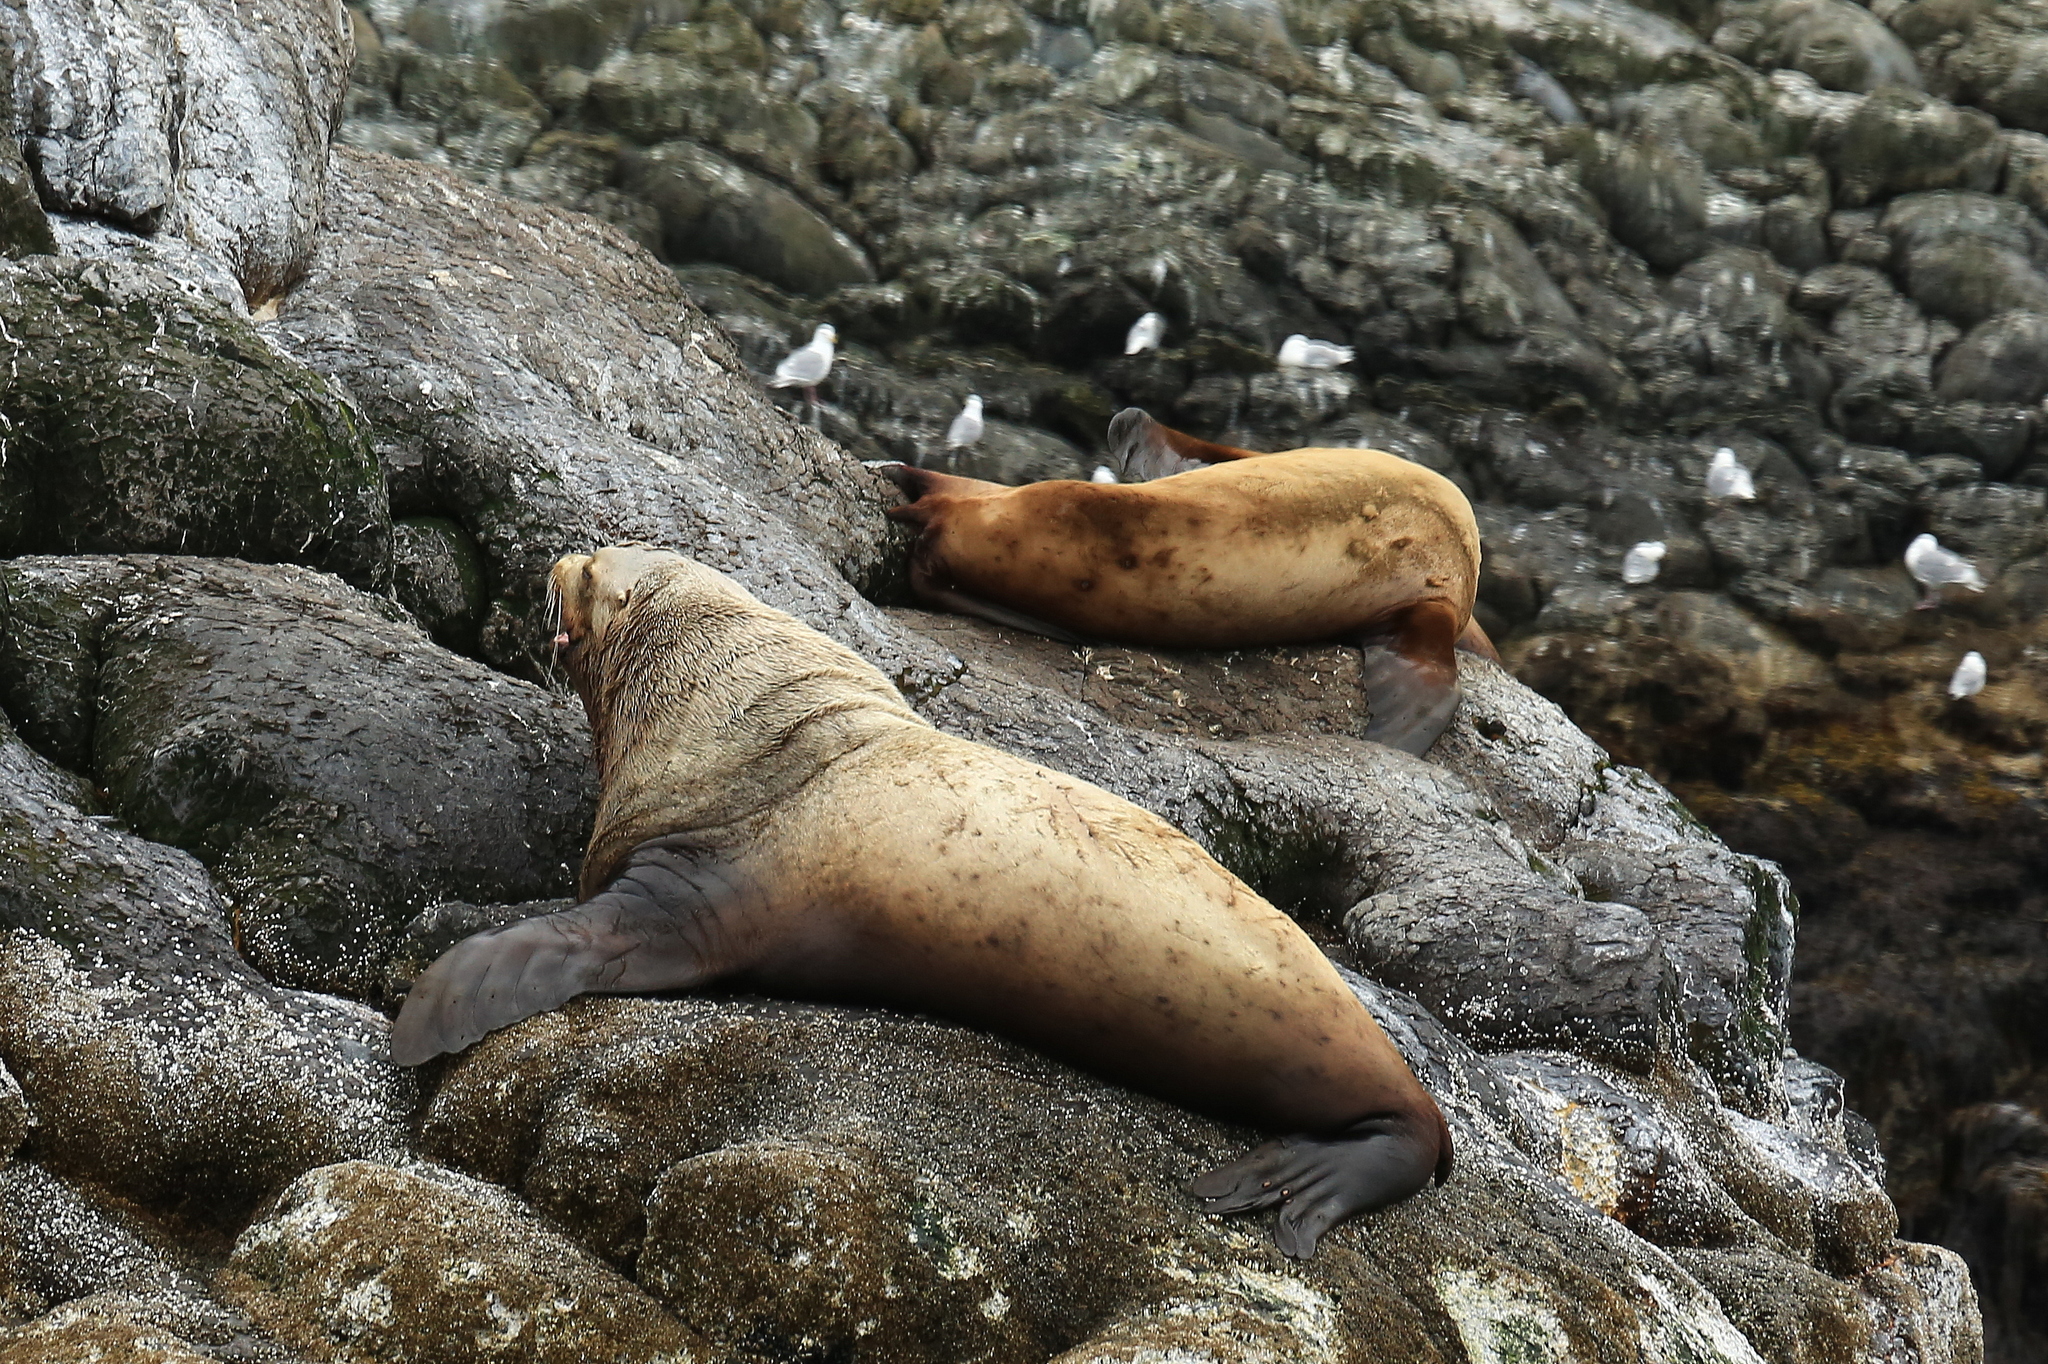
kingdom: Animalia
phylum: Chordata
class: Mammalia
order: Carnivora
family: Otariidae
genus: Eumetopias
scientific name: Eumetopias jubatus
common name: Steller sea lion
